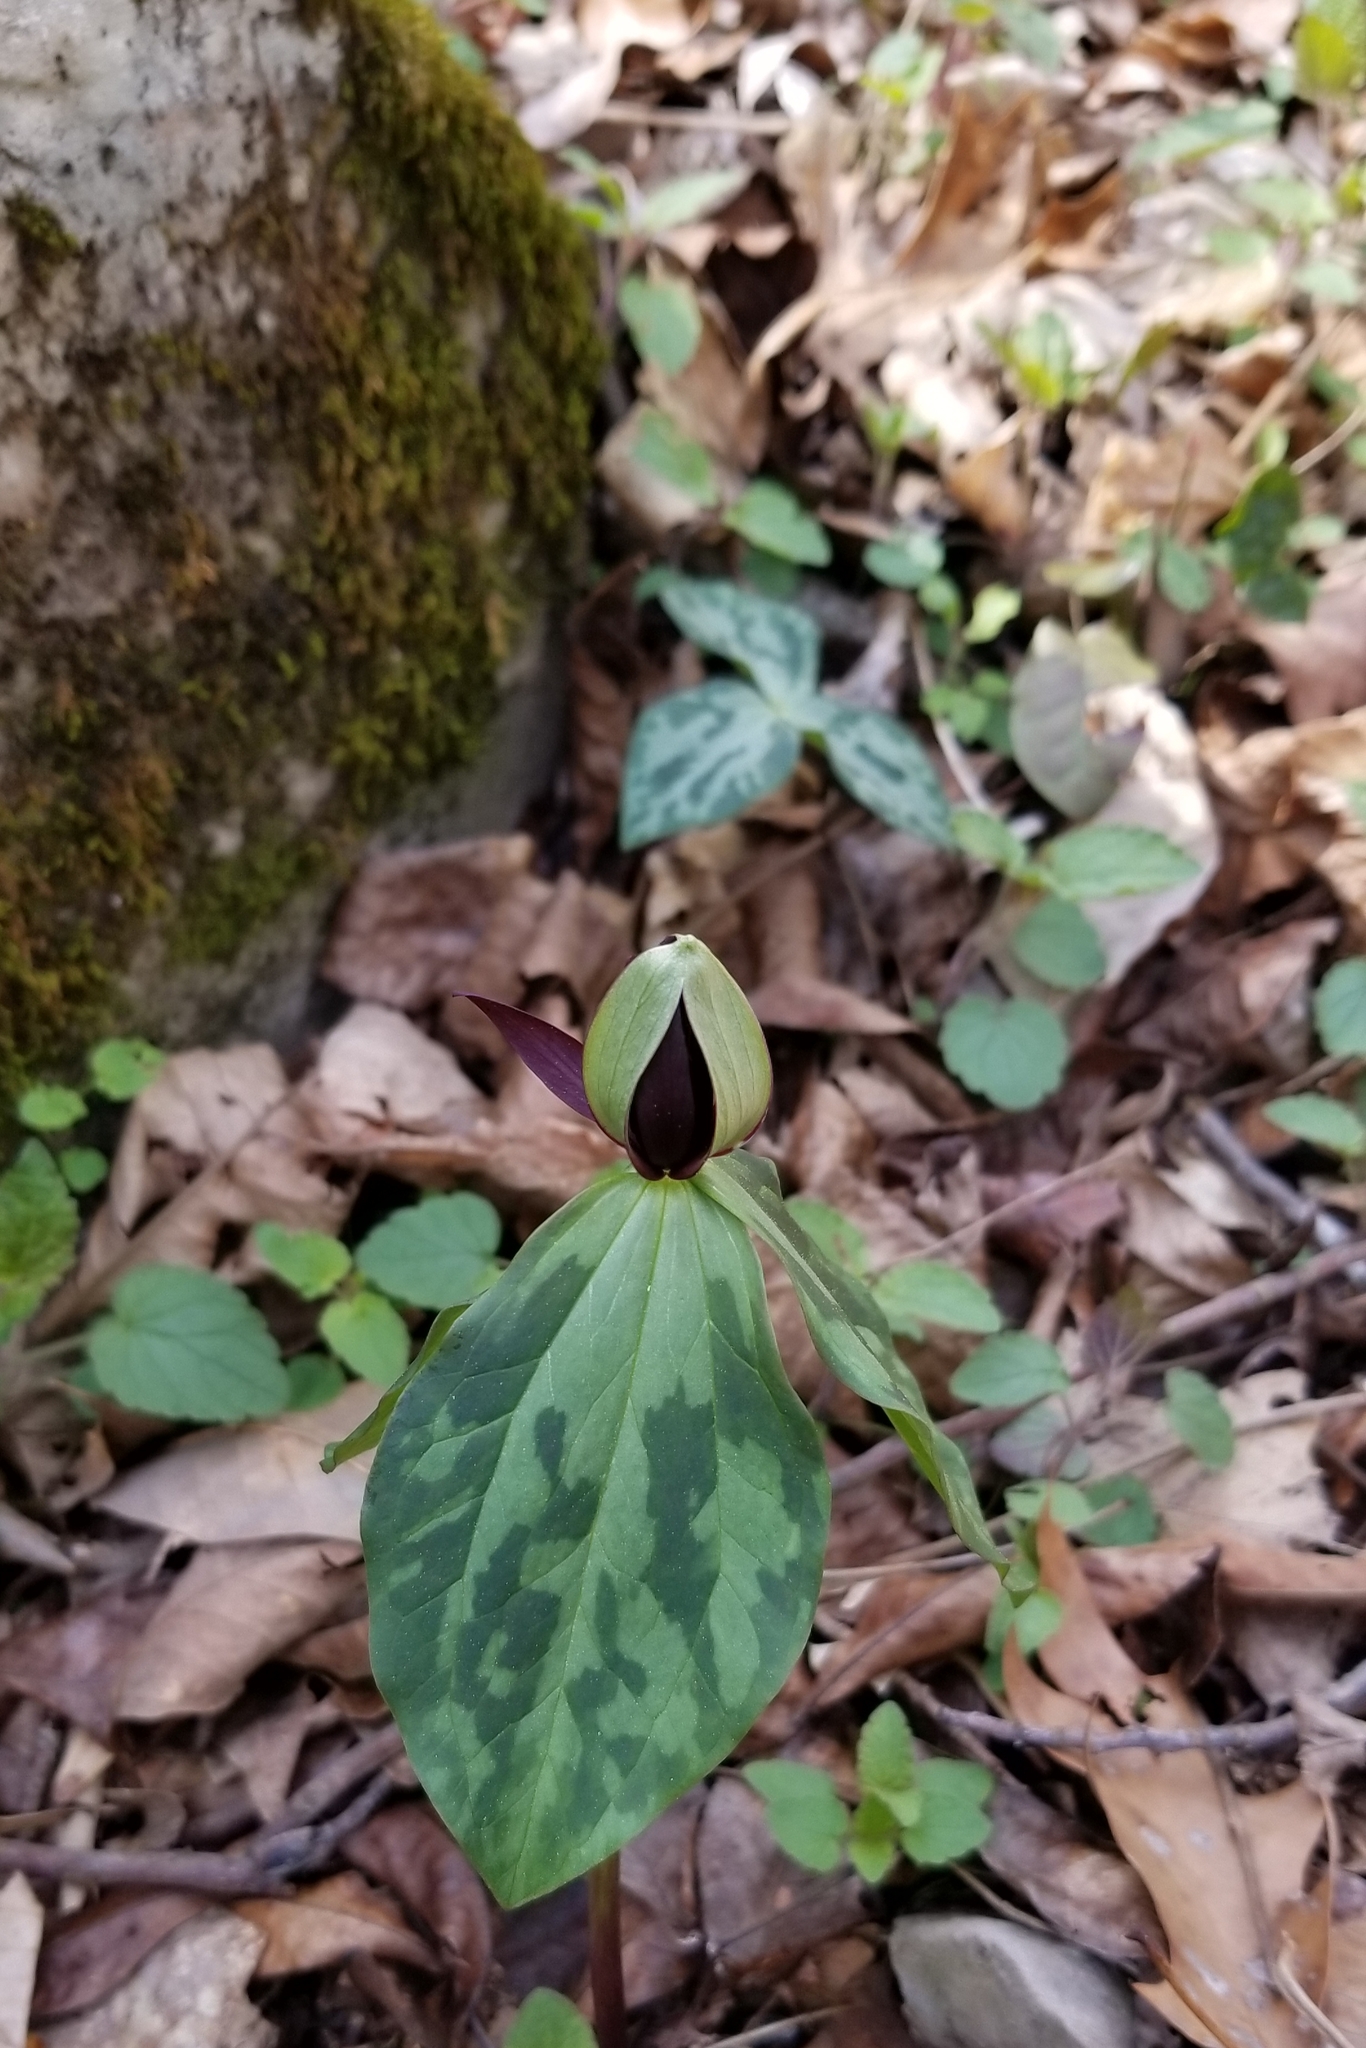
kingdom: Plantae
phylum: Tracheophyta
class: Liliopsida
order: Liliales
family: Melanthiaceae
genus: Trillium
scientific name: Trillium stamineum
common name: Blue ridge wakerobin
